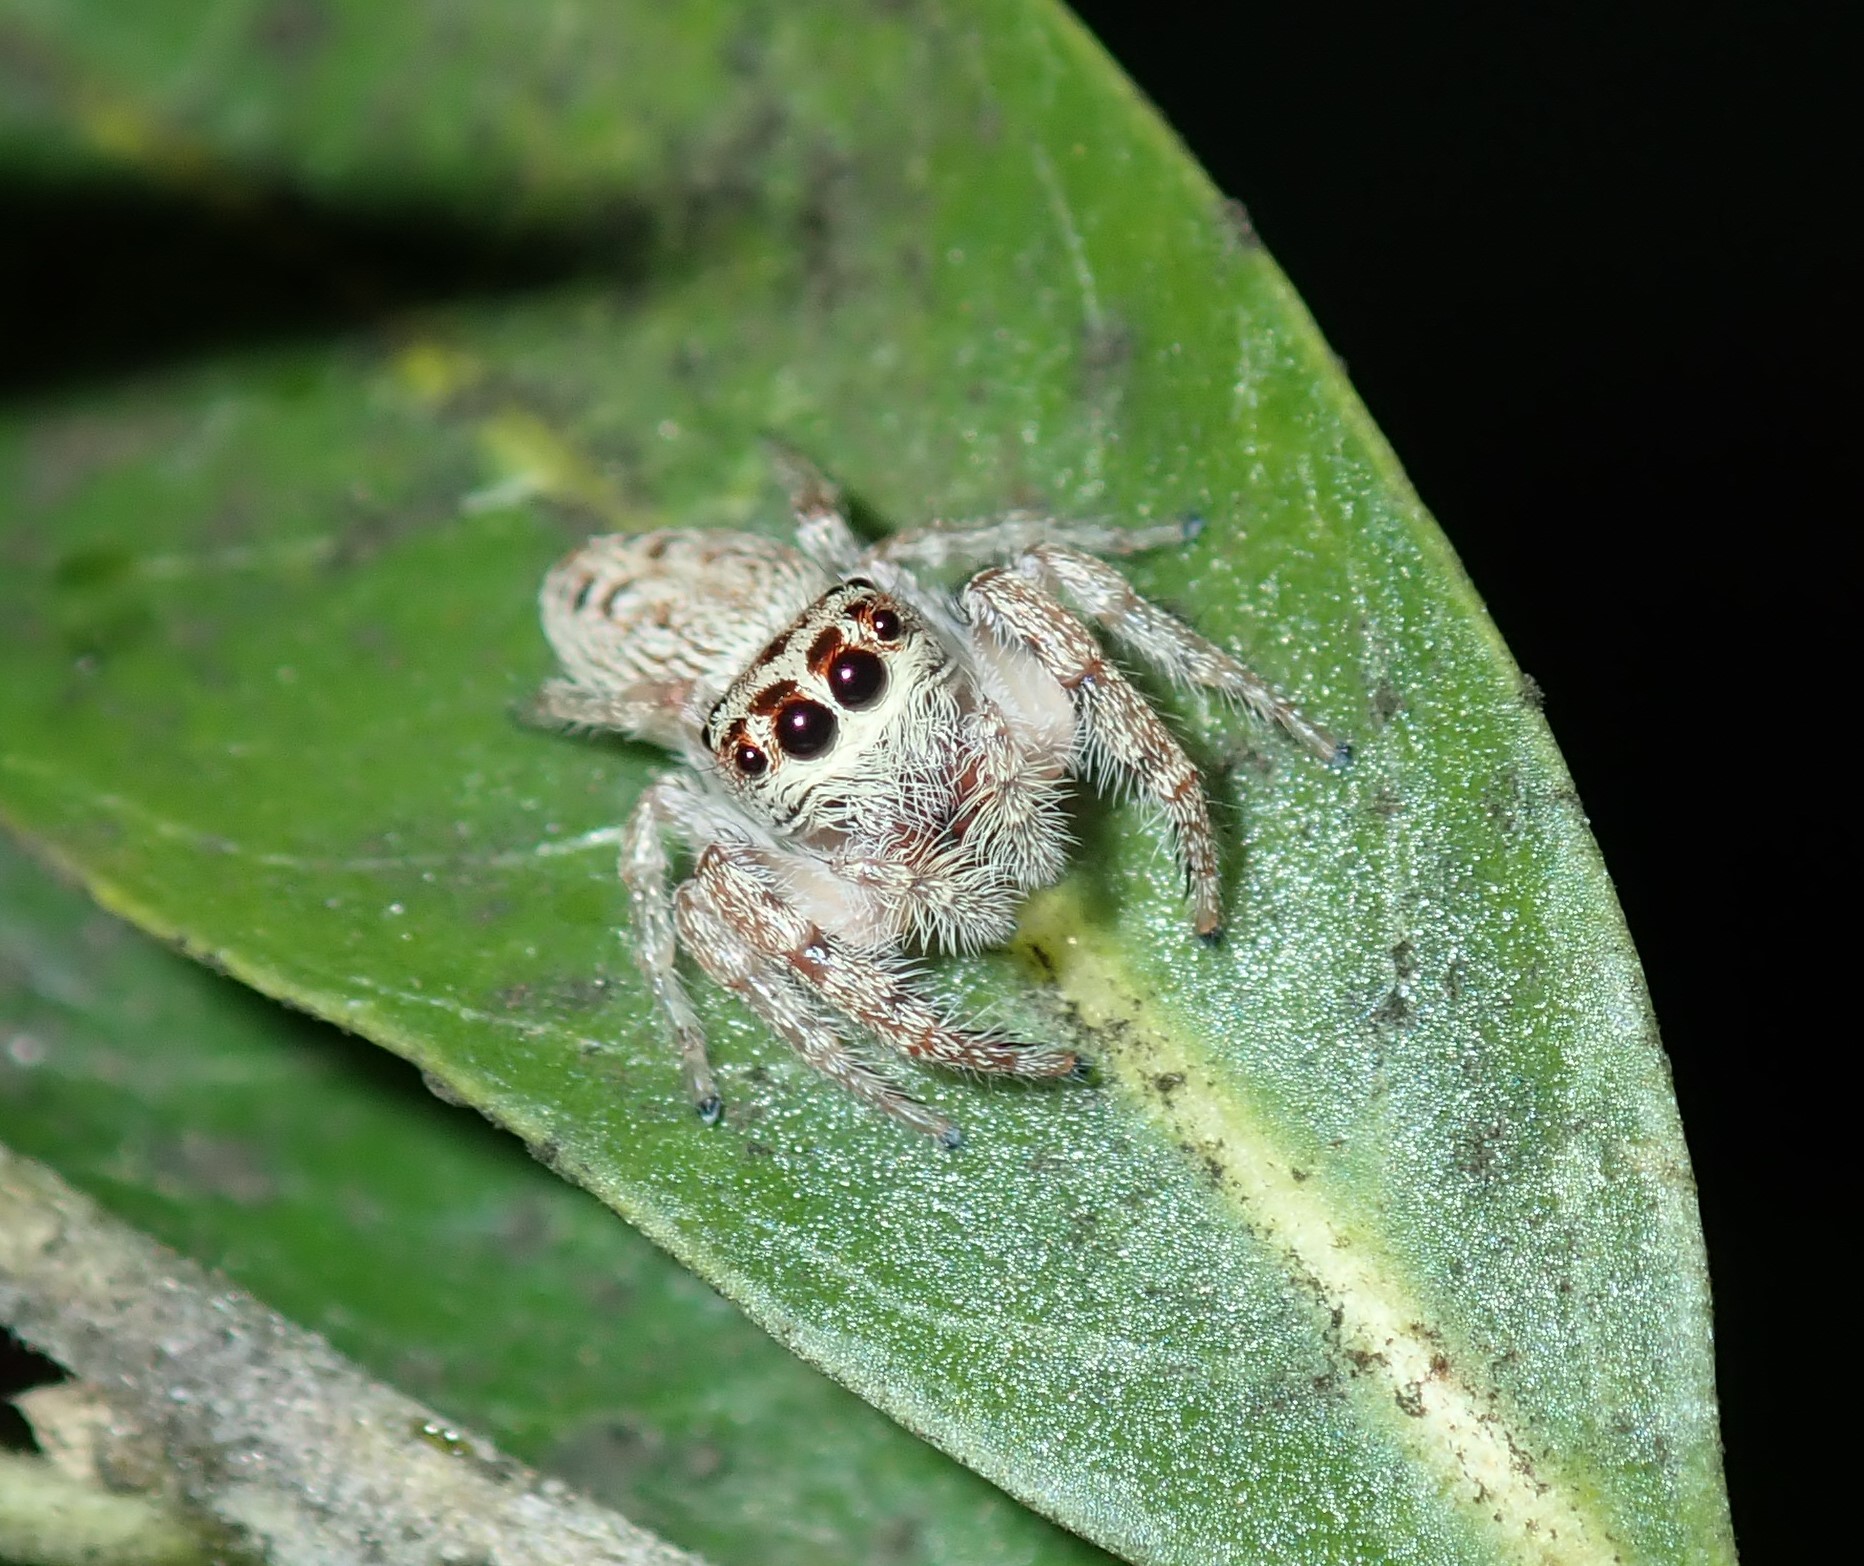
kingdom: Animalia
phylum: Arthropoda
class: Arachnida
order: Araneae
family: Salticidae
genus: Opisthoncus
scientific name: Opisthoncus nigrofemoratus
